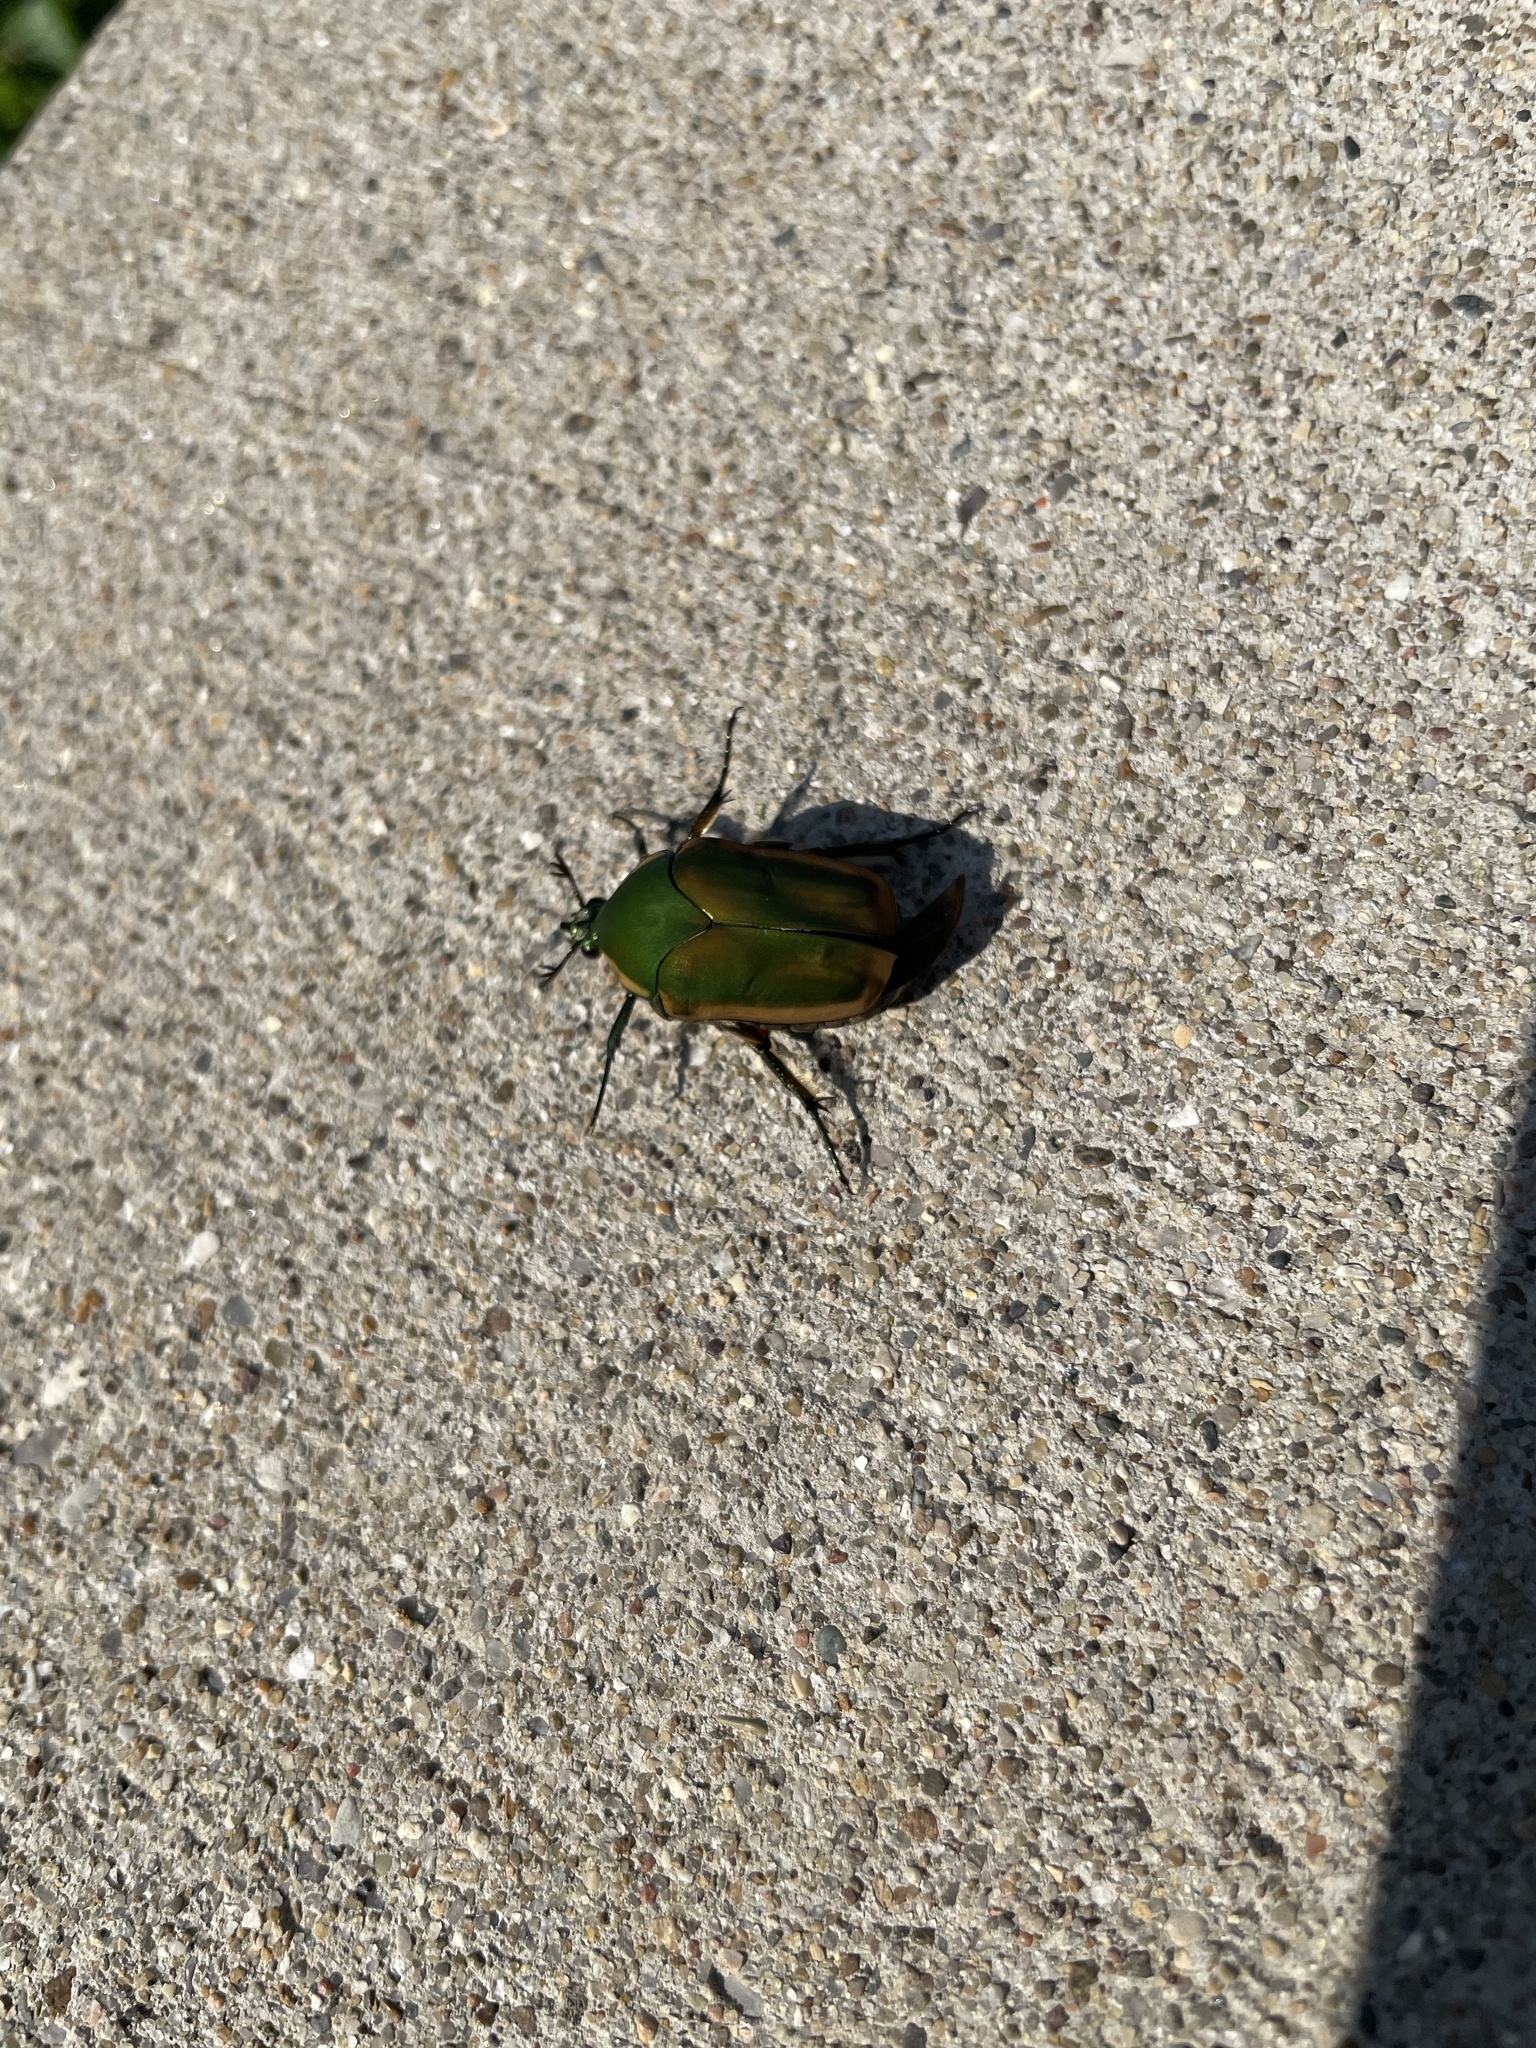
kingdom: Animalia
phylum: Arthropoda
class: Insecta
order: Coleoptera
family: Scarabaeidae
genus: Cotinis
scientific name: Cotinis nitida
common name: Common green june beetle
